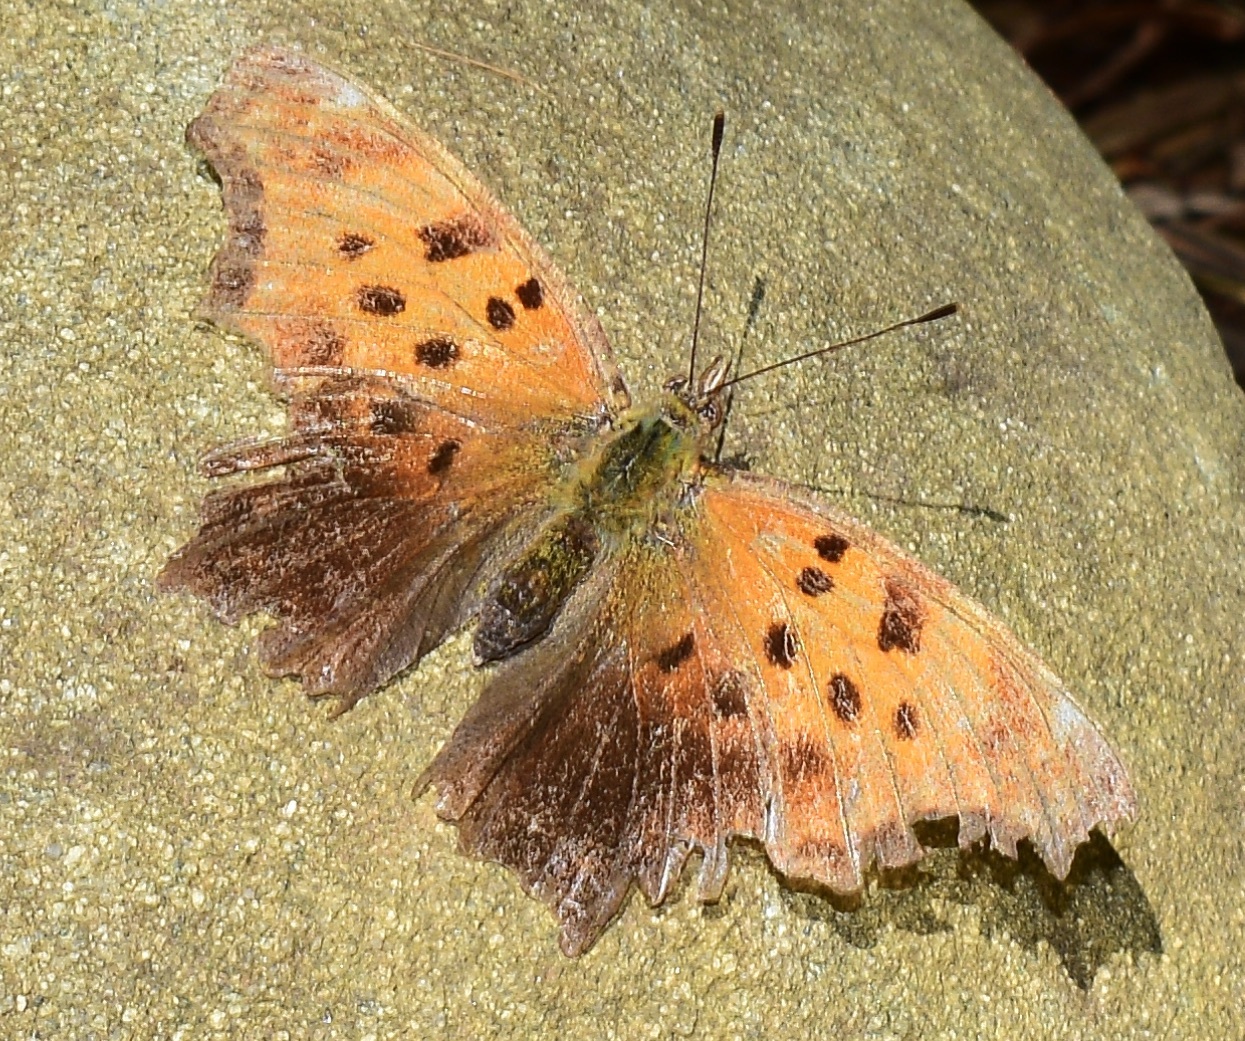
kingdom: Animalia
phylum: Arthropoda
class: Insecta
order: Lepidoptera
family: Nymphalidae
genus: Polygonia
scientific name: Polygonia comma
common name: Eastern comma
